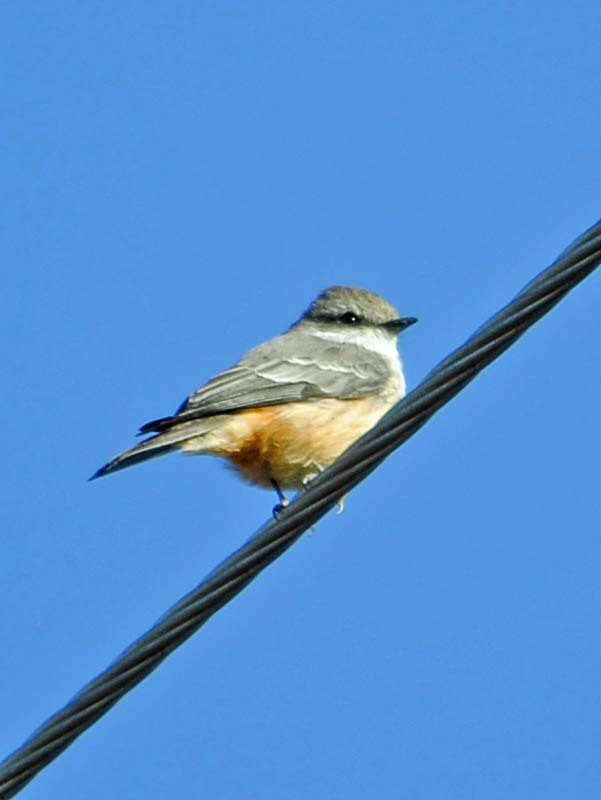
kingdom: Animalia
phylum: Chordata
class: Aves
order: Passeriformes
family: Tyrannidae
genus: Pyrocephalus
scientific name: Pyrocephalus rubinus
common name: Vermilion flycatcher
